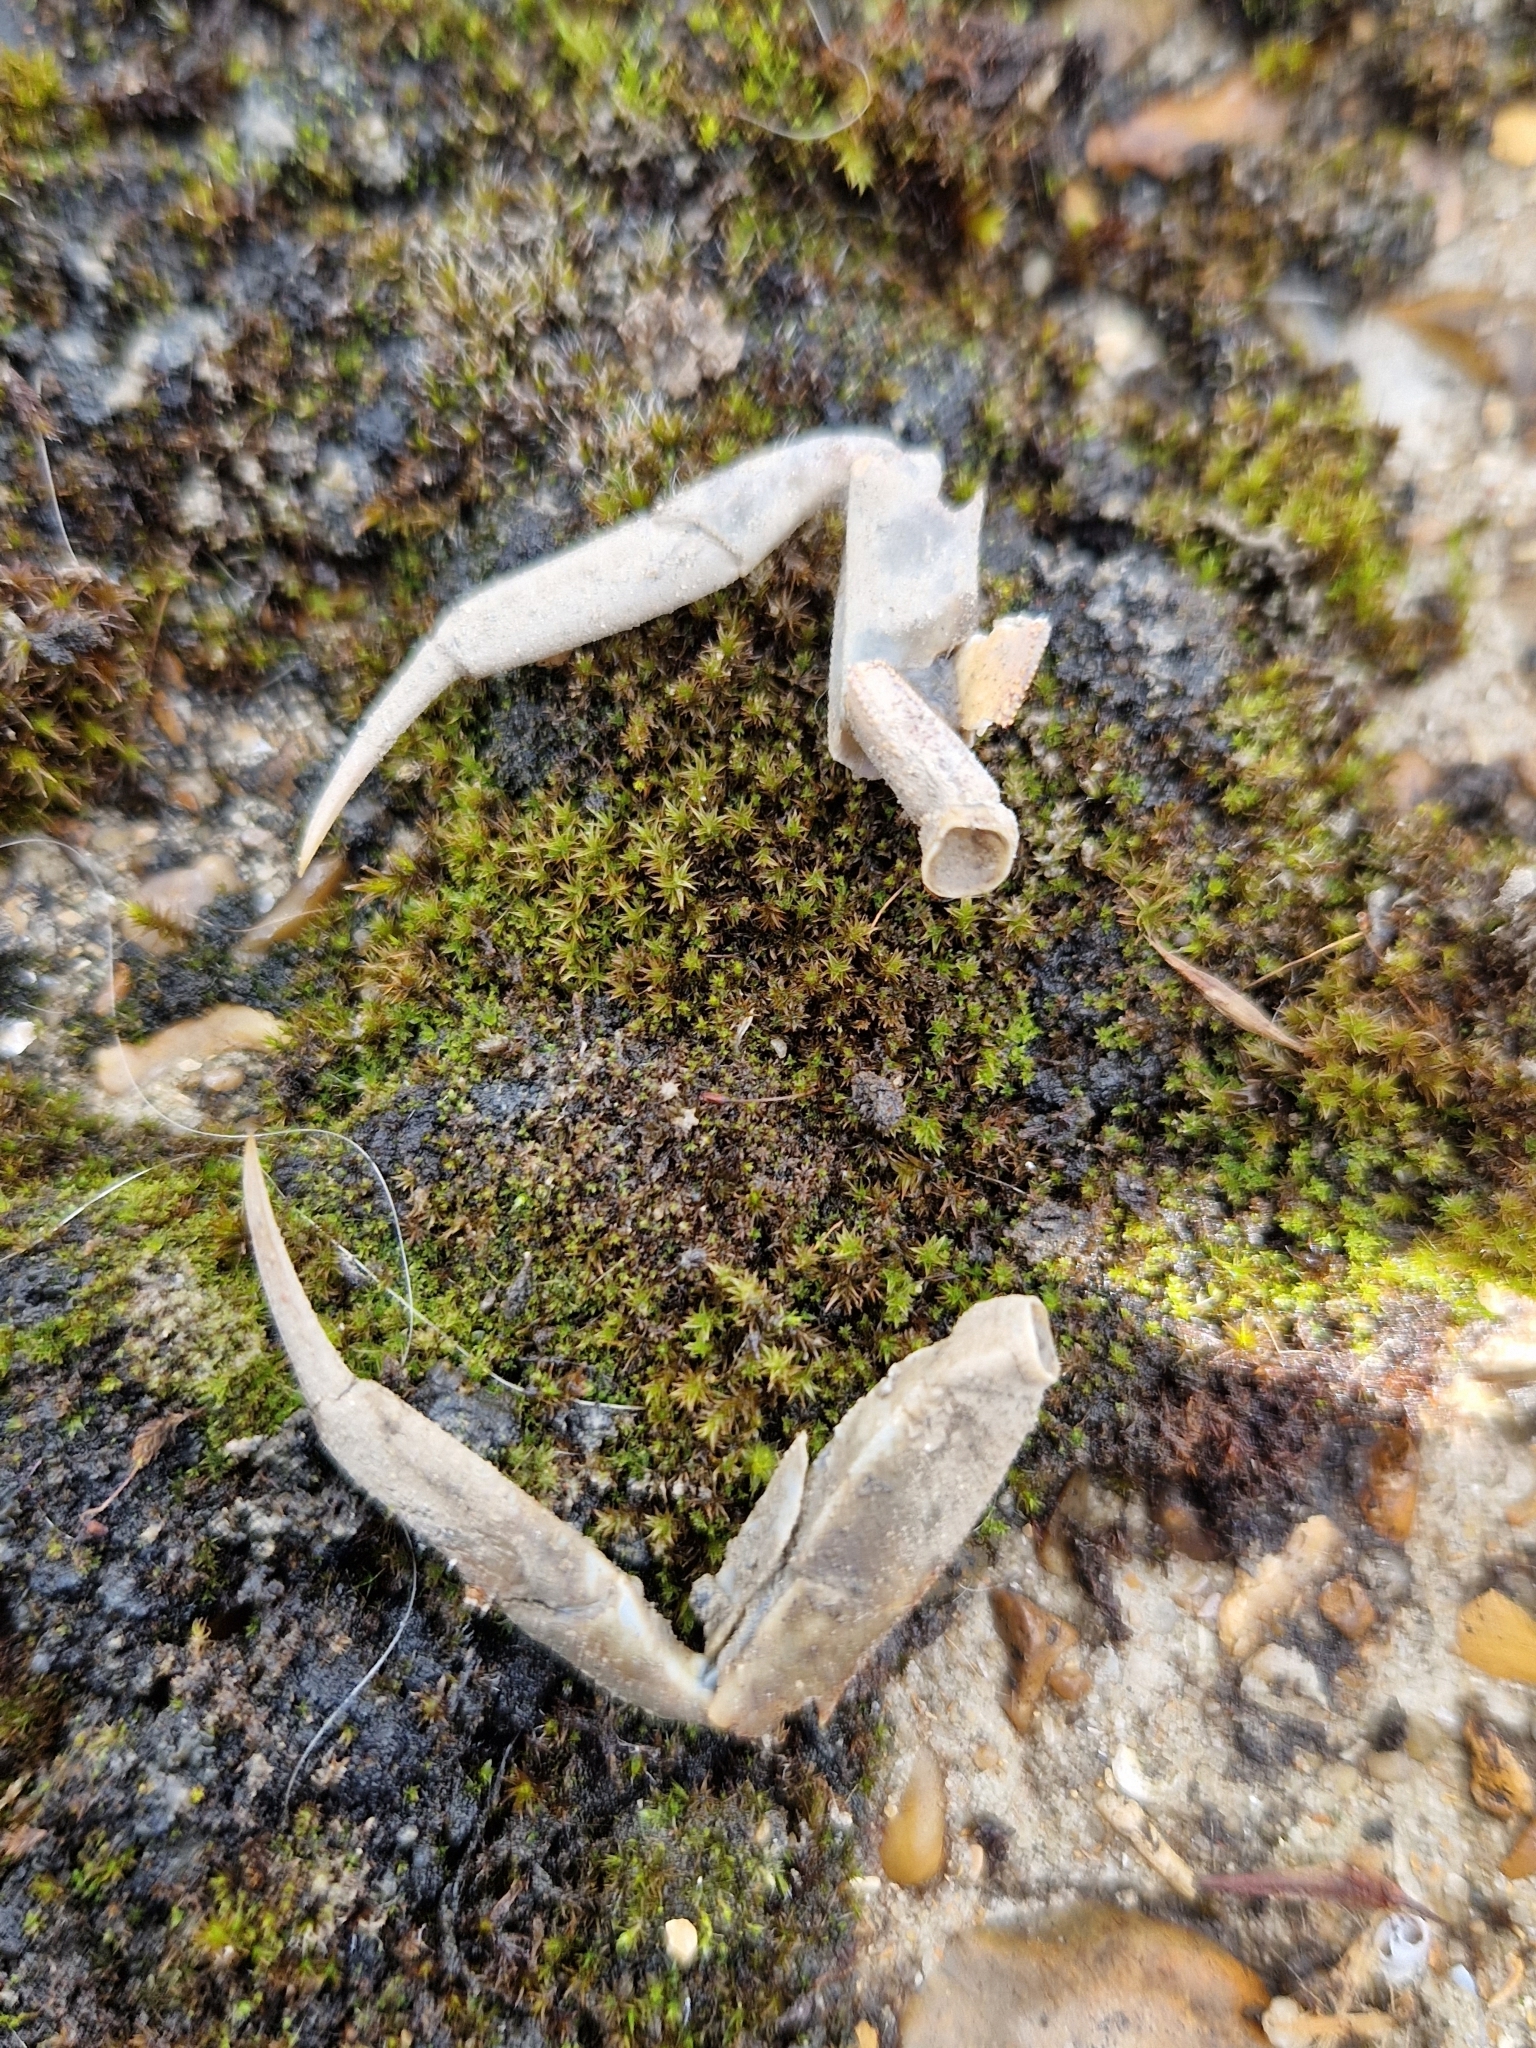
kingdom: Animalia
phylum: Arthropoda
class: Malacostraca
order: Decapoda
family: Varunidae
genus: Eriocheir
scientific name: Eriocheir sinensis
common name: Chinese mitten crab
